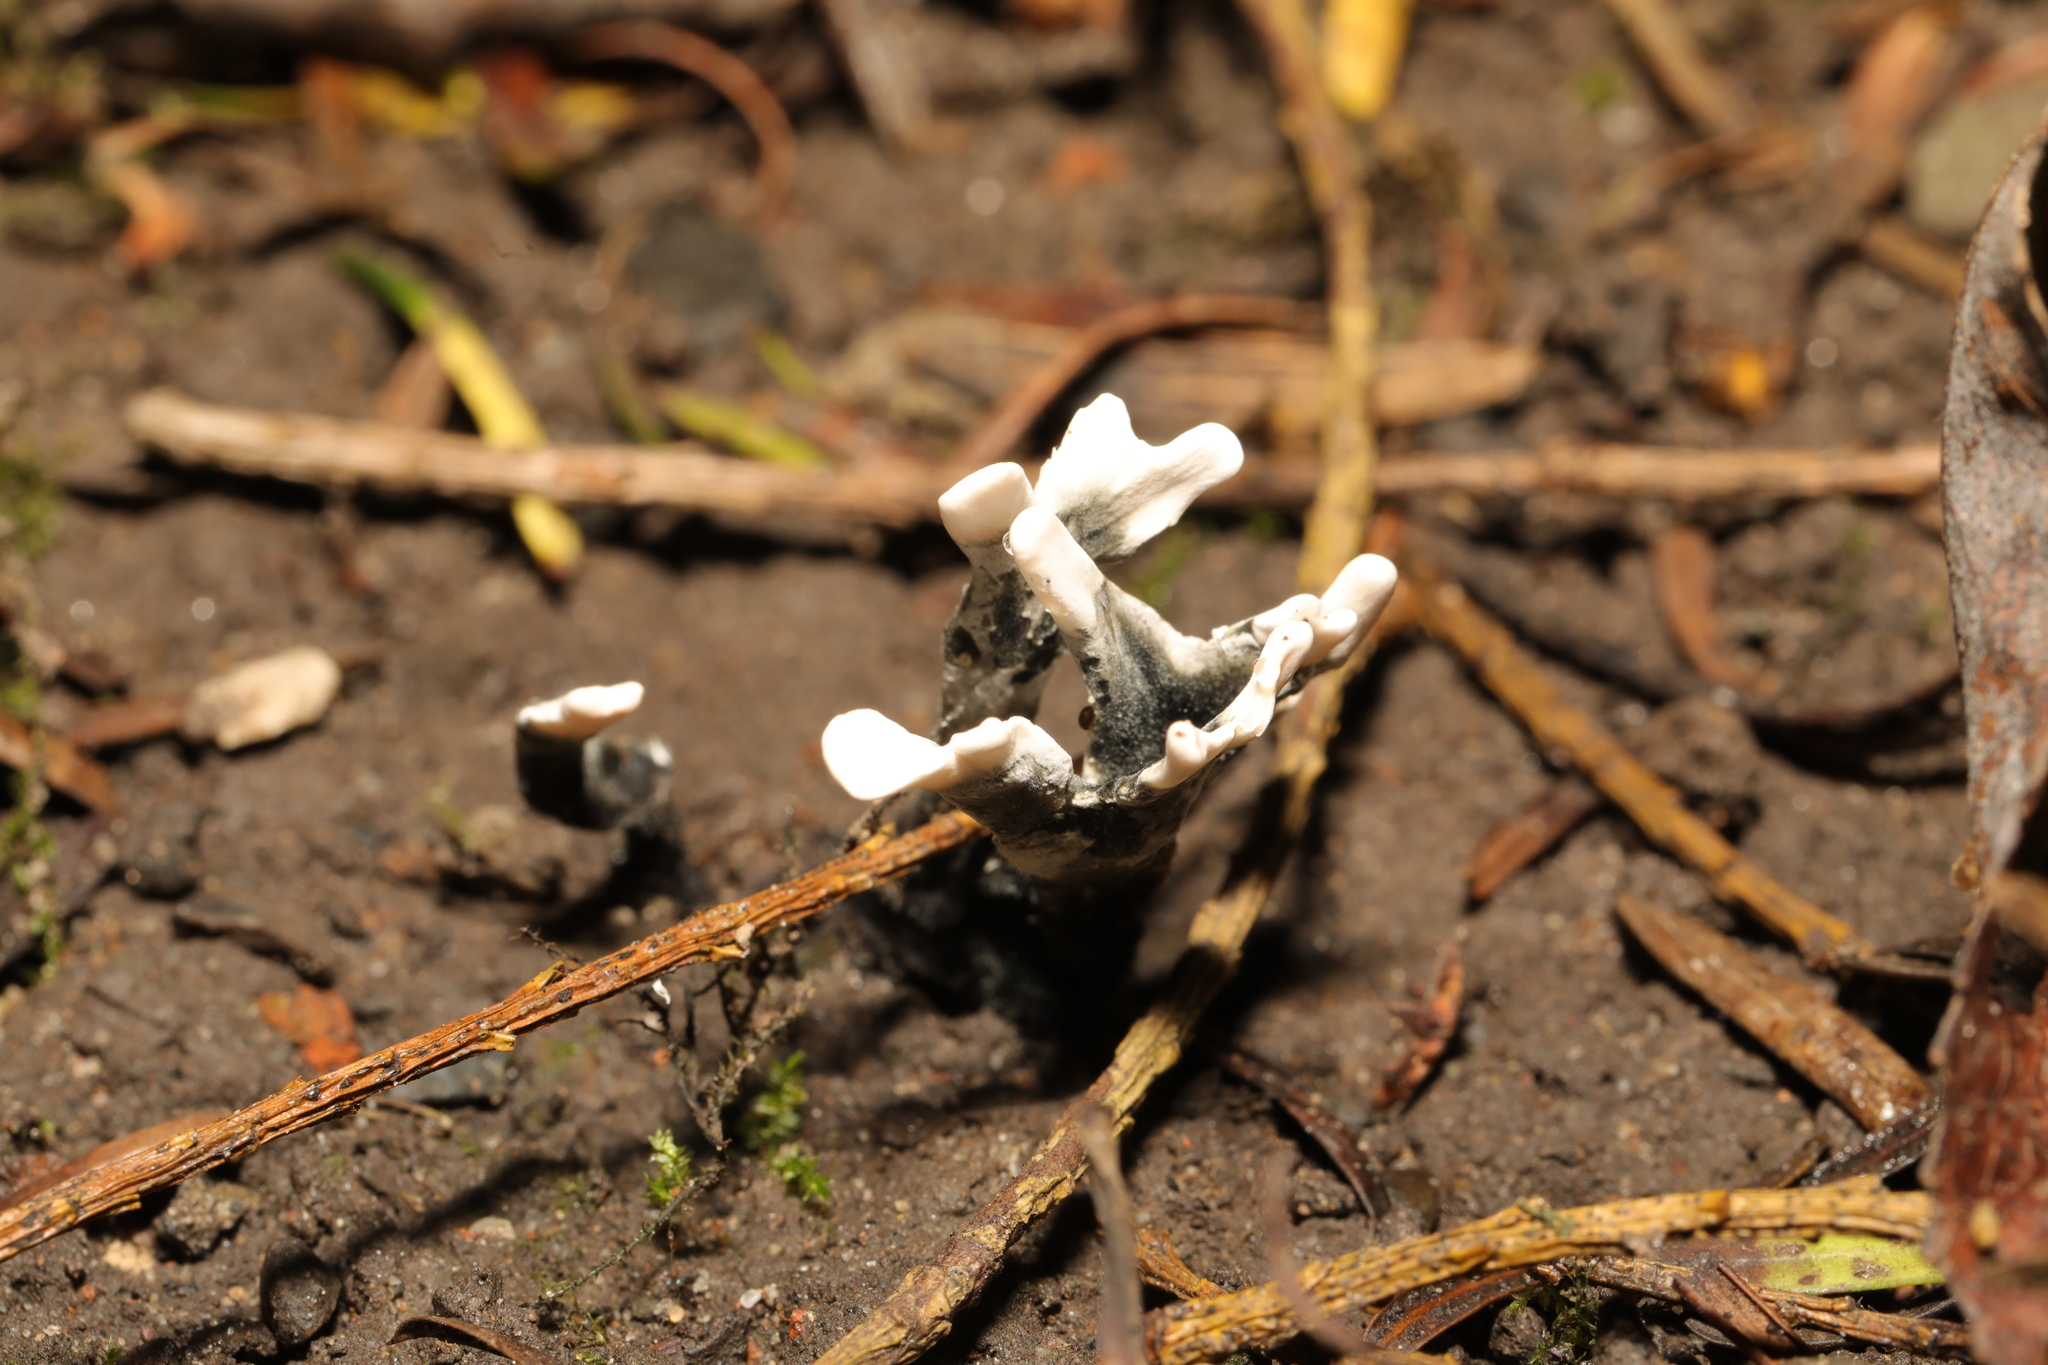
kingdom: Fungi
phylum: Ascomycota
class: Sordariomycetes
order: Xylariales
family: Xylariaceae
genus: Xylaria
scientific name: Xylaria hypoxylon
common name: Candle-snuff fungus
